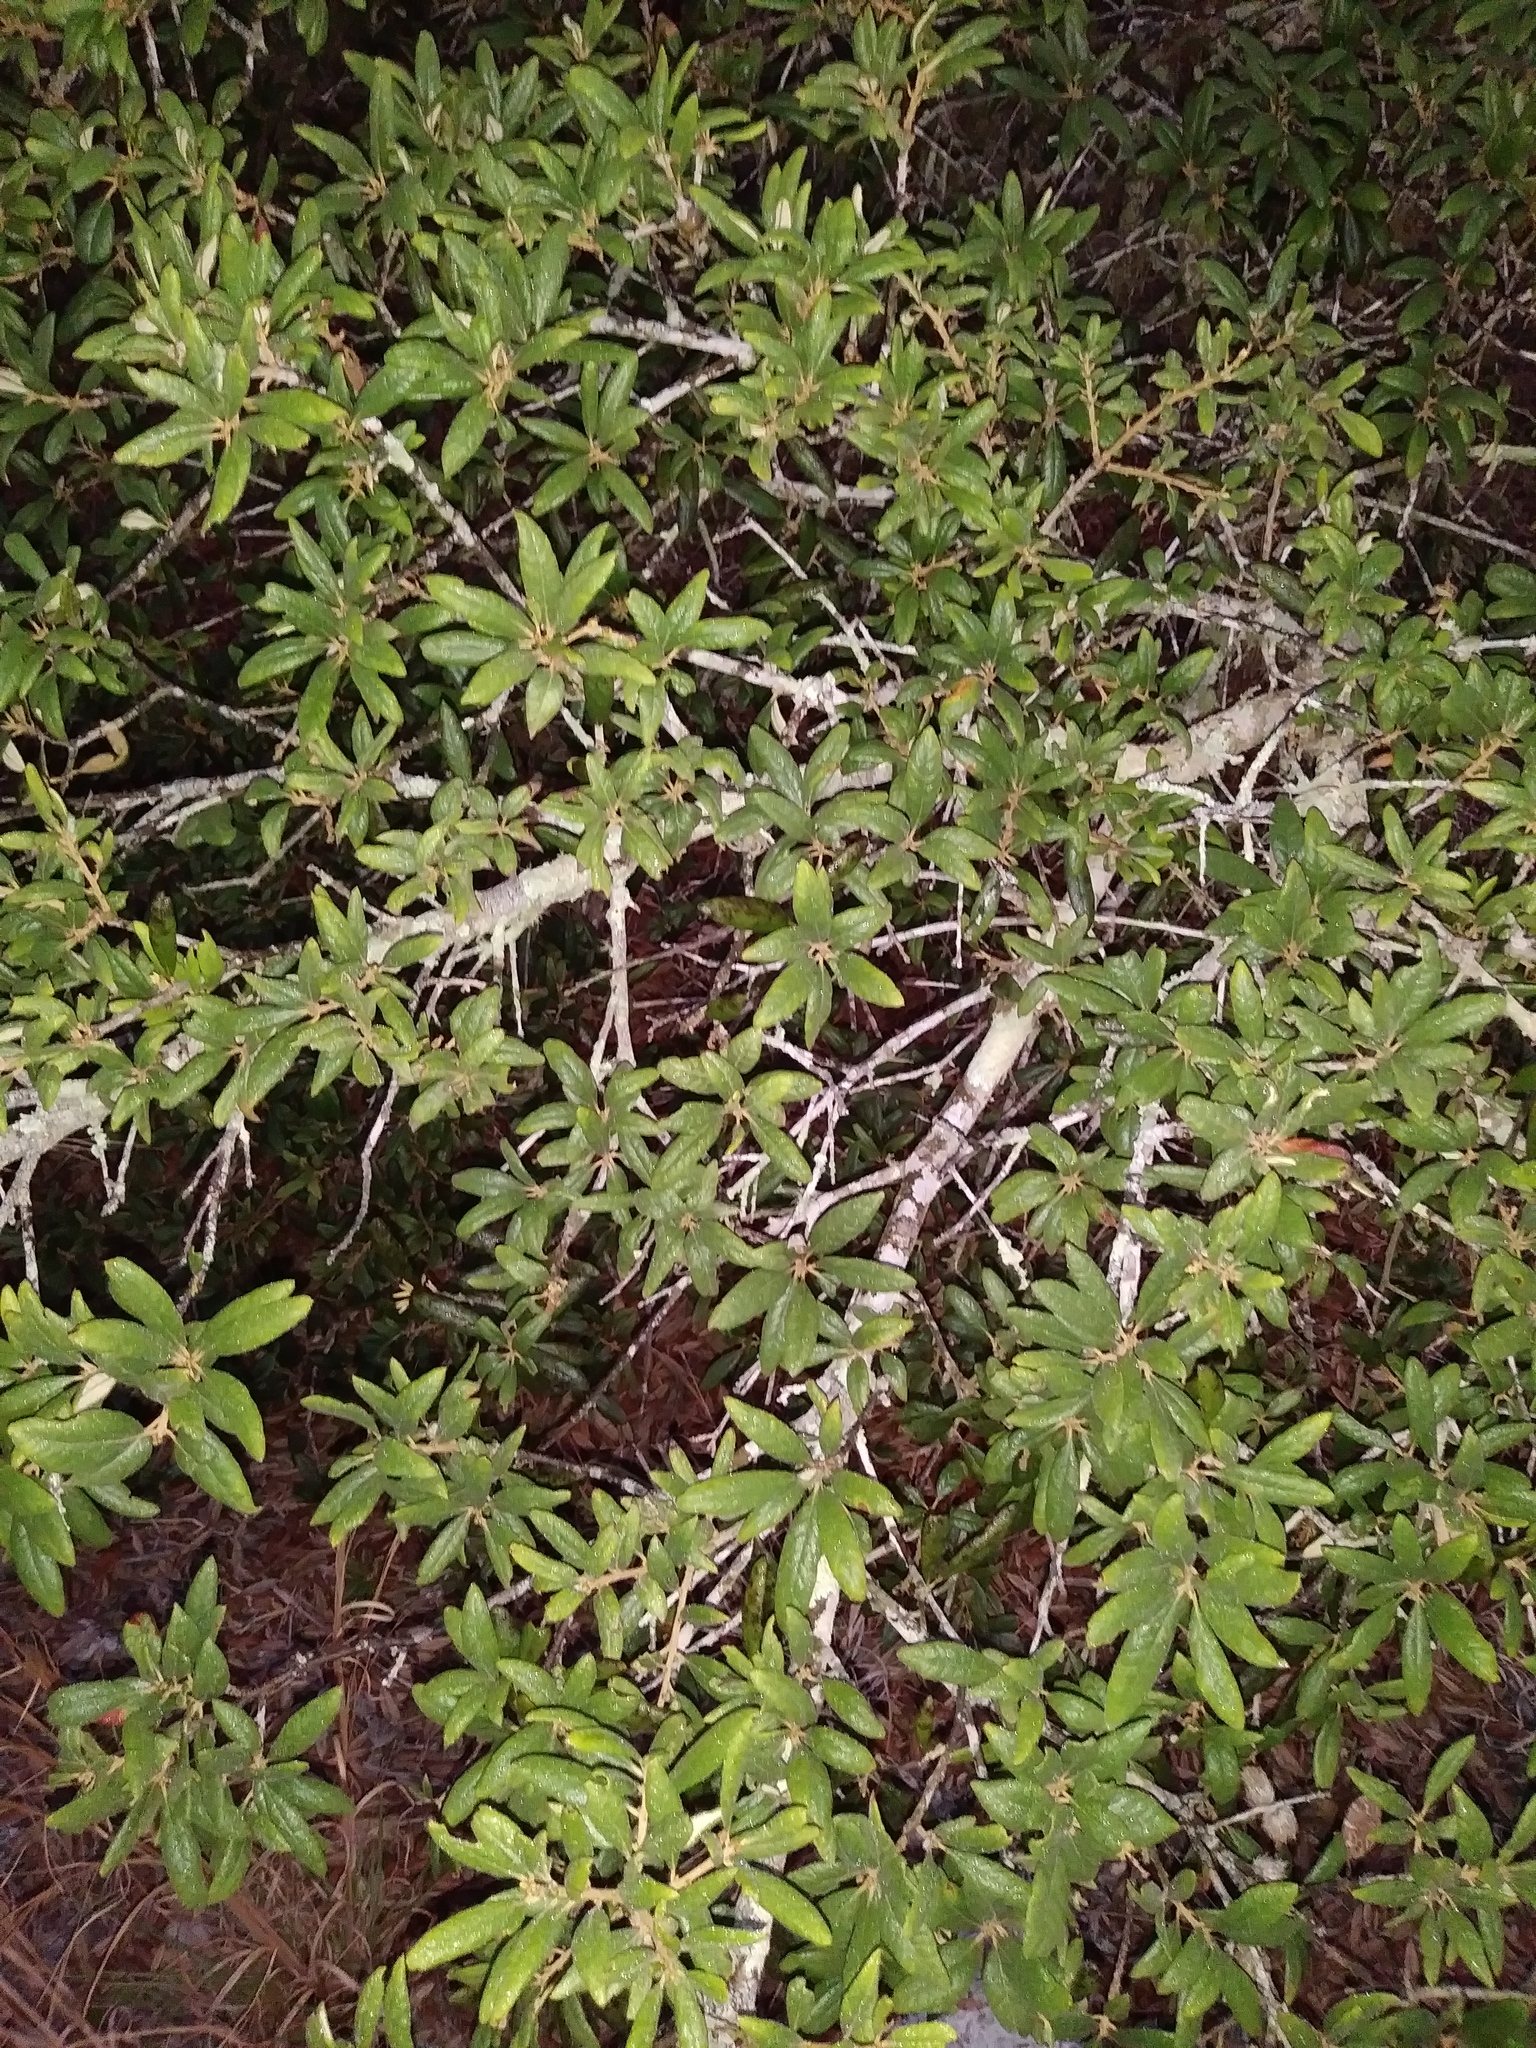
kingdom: Plantae
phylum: Tracheophyta
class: Magnoliopsida
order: Fagales
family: Fagaceae
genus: Quercus
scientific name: Quercus geminata
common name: Sand live oak
